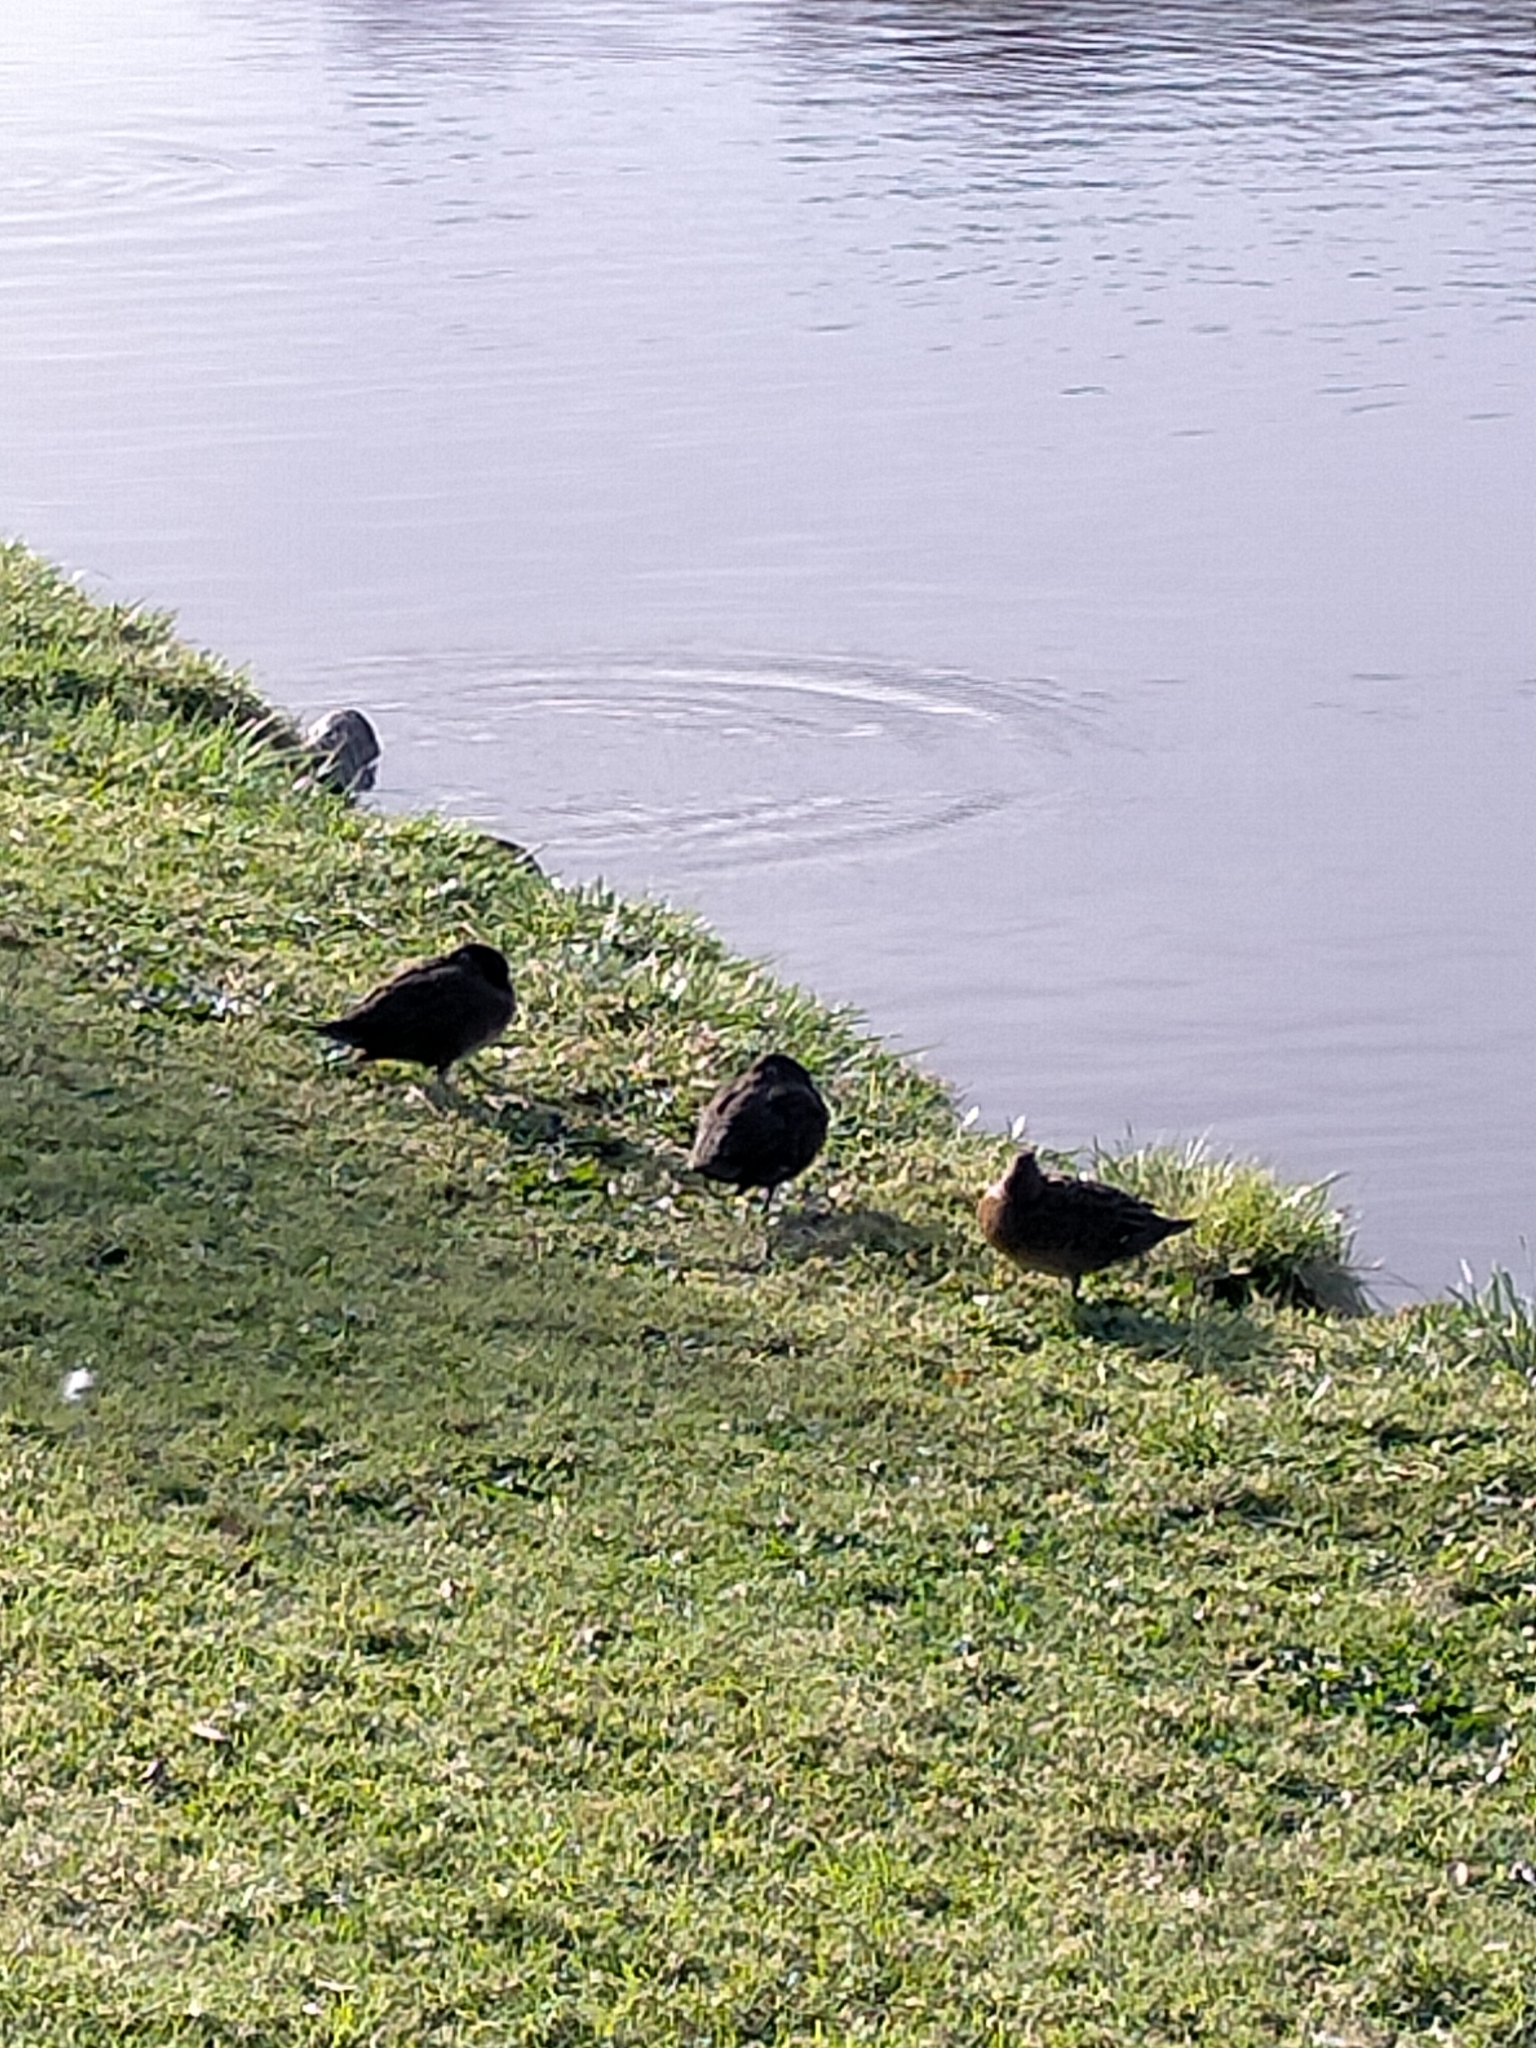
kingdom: Animalia
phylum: Chordata
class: Aves
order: Anseriformes
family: Anatidae
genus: Anas
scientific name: Anas chlorotis
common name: Brown teal
